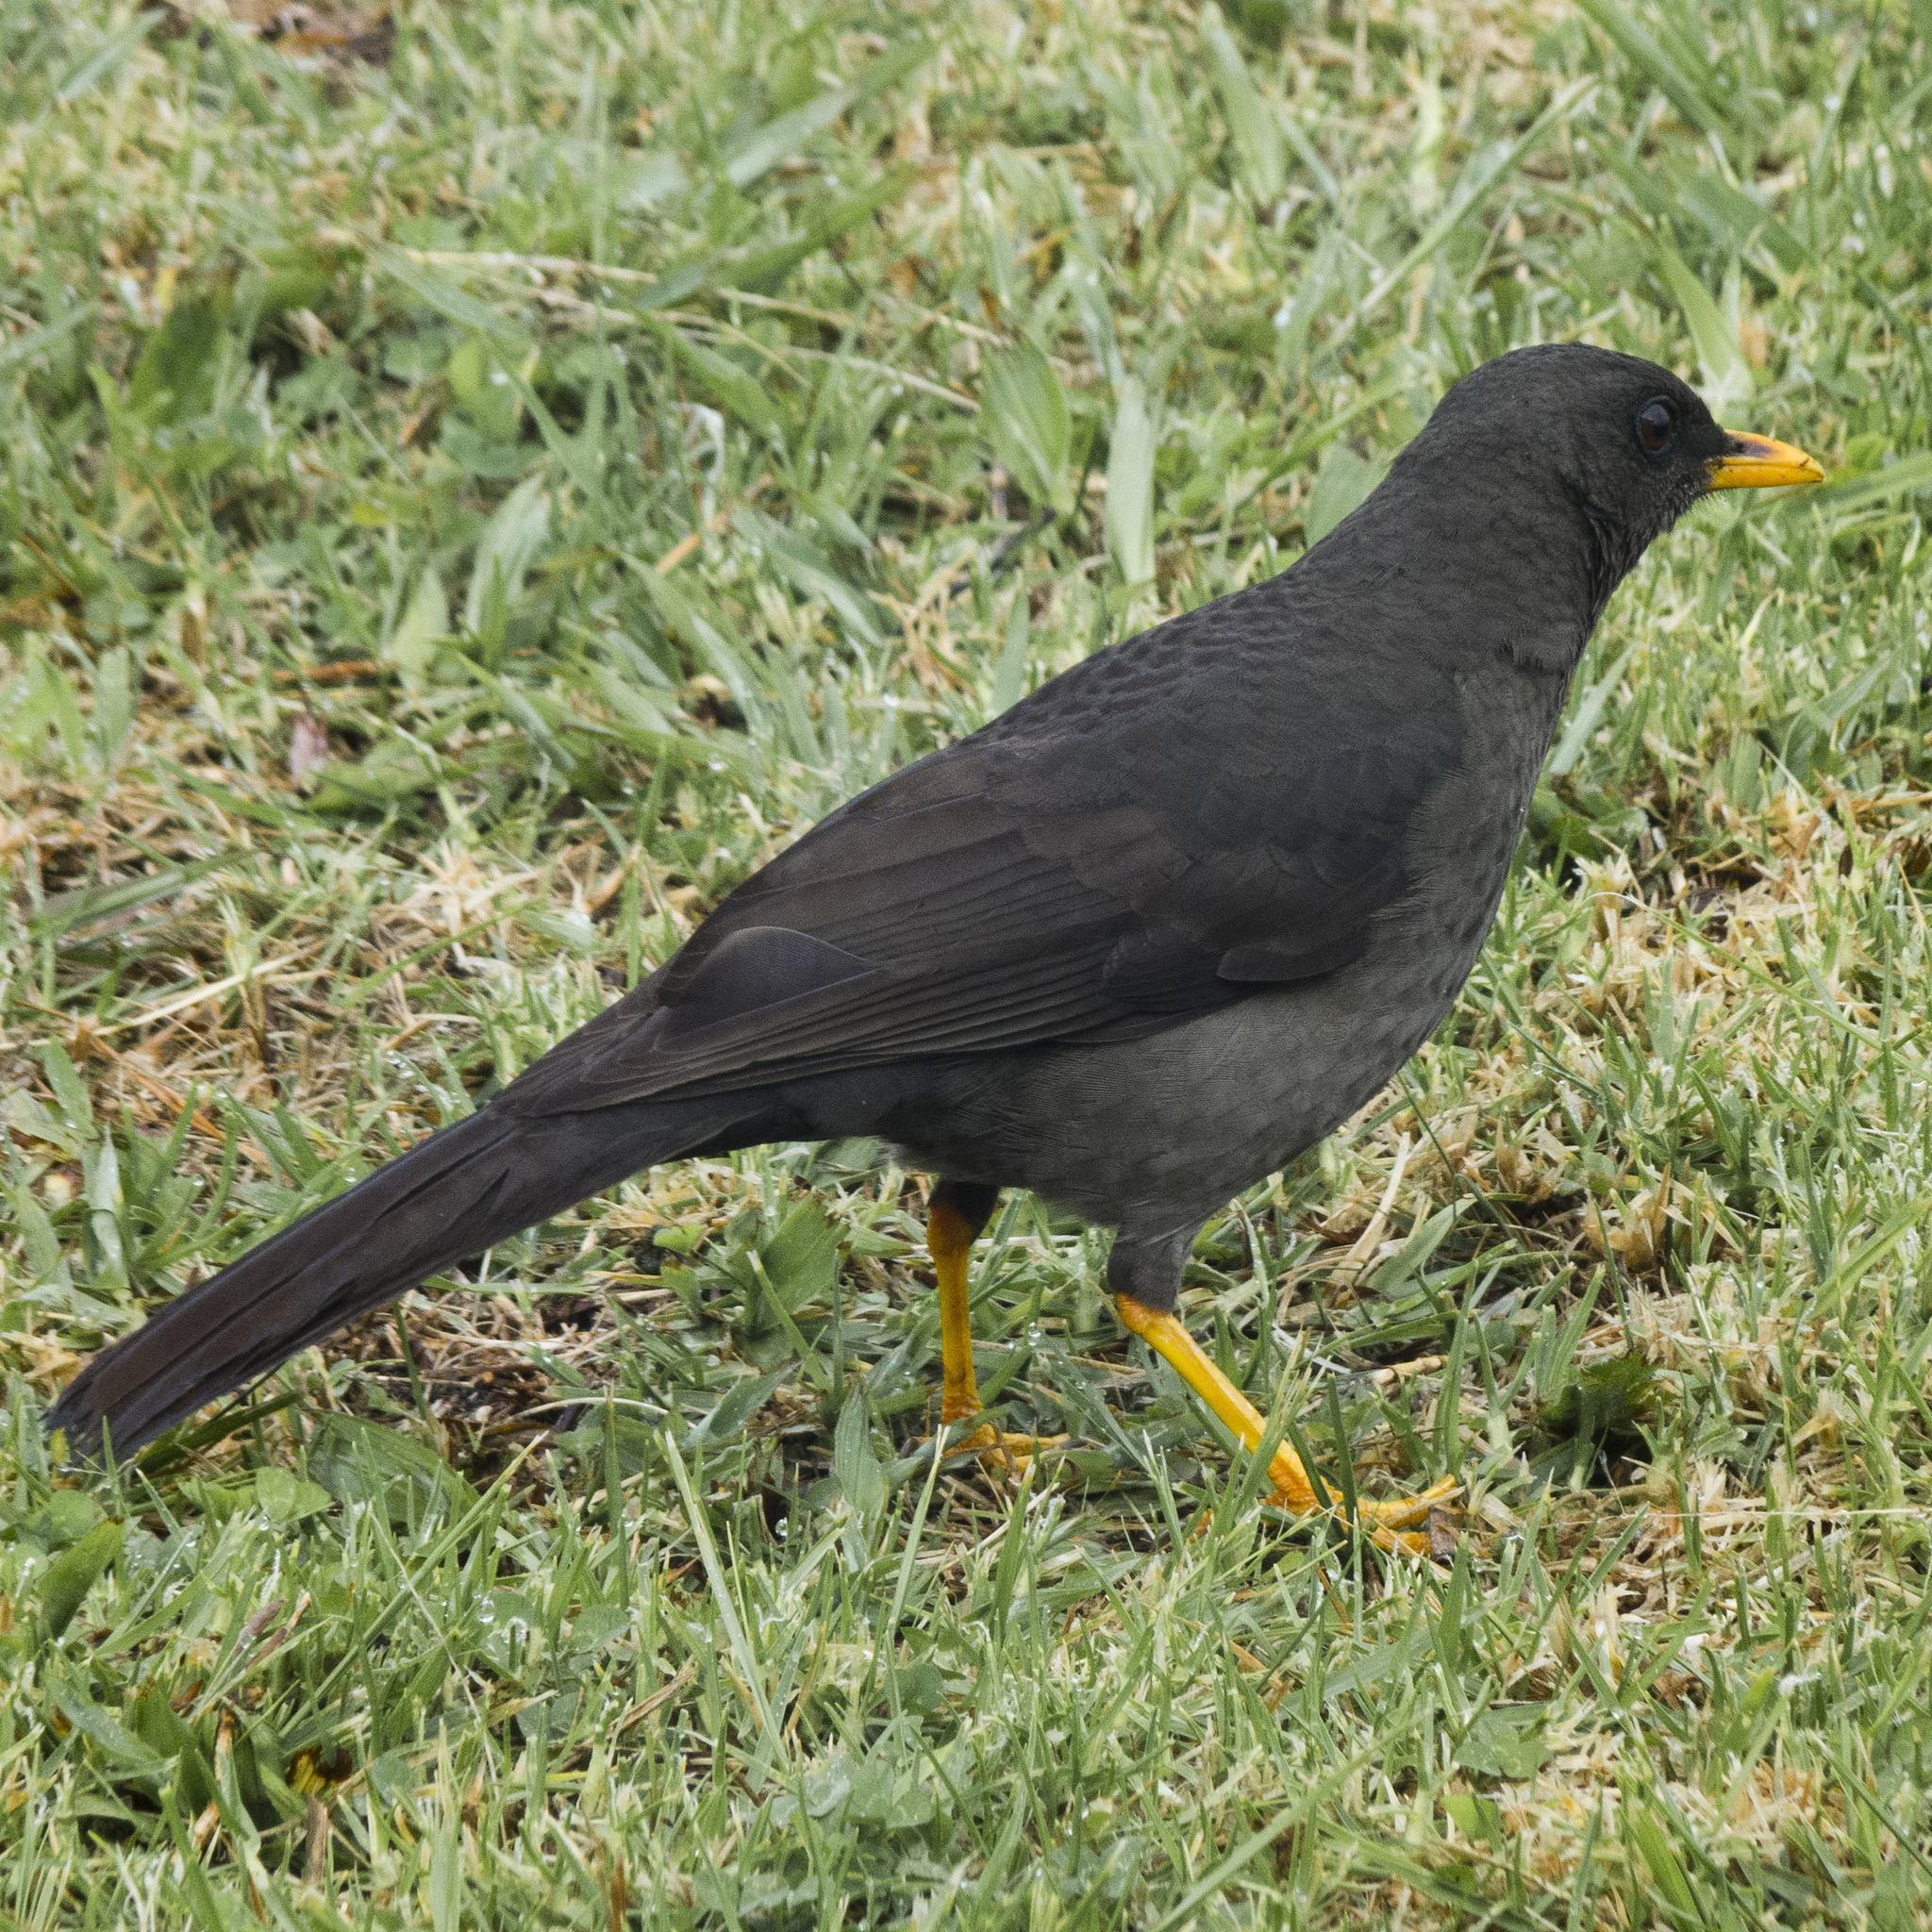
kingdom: Animalia
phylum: Chordata
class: Aves
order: Passeriformes
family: Turdidae
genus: Turdus
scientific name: Turdus fuscater
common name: Great thrush
